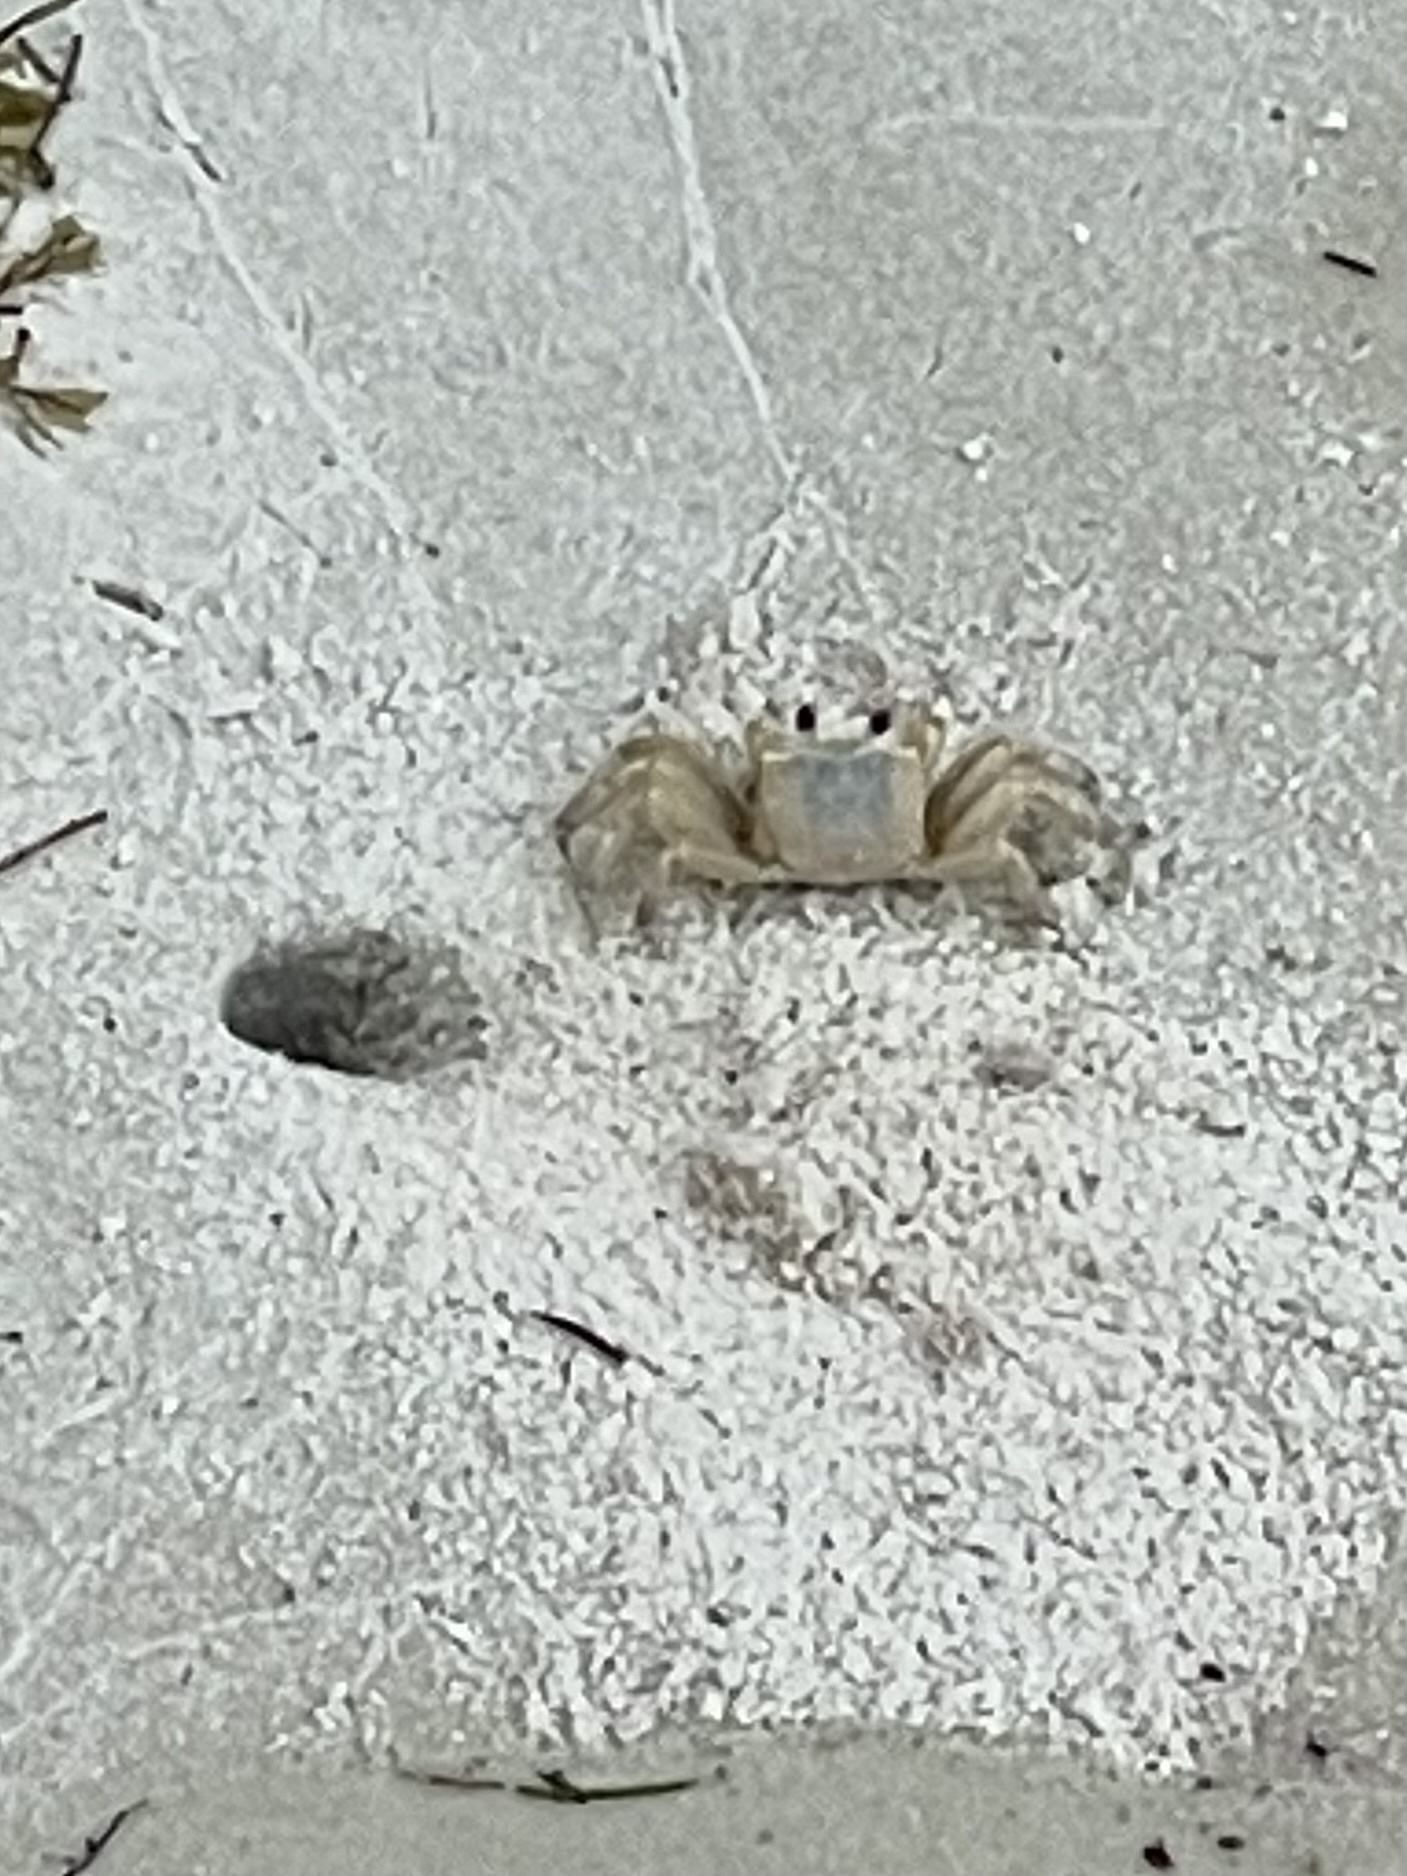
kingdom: Animalia
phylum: Arthropoda
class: Malacostraca
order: Decapoda
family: Ocypodidae
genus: Ocypode
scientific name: Ocypode quadrata
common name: Ghost crab
